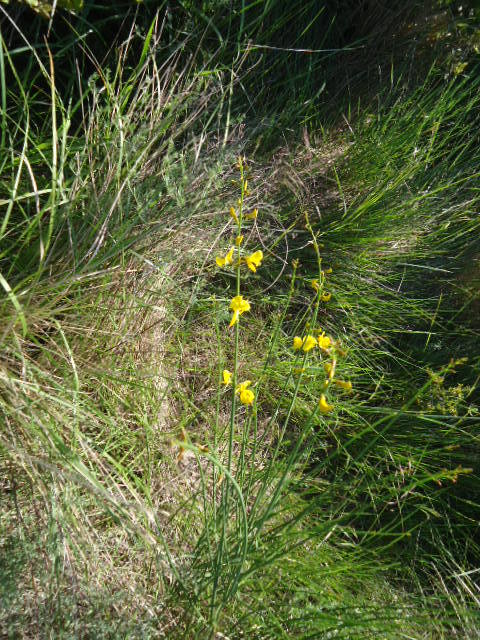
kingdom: Plantae
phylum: Tracheophyta
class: Magnoliopsida
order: Fabales
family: Fabaceae
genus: Spartium
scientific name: Spartium junceum
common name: Spanish broom
